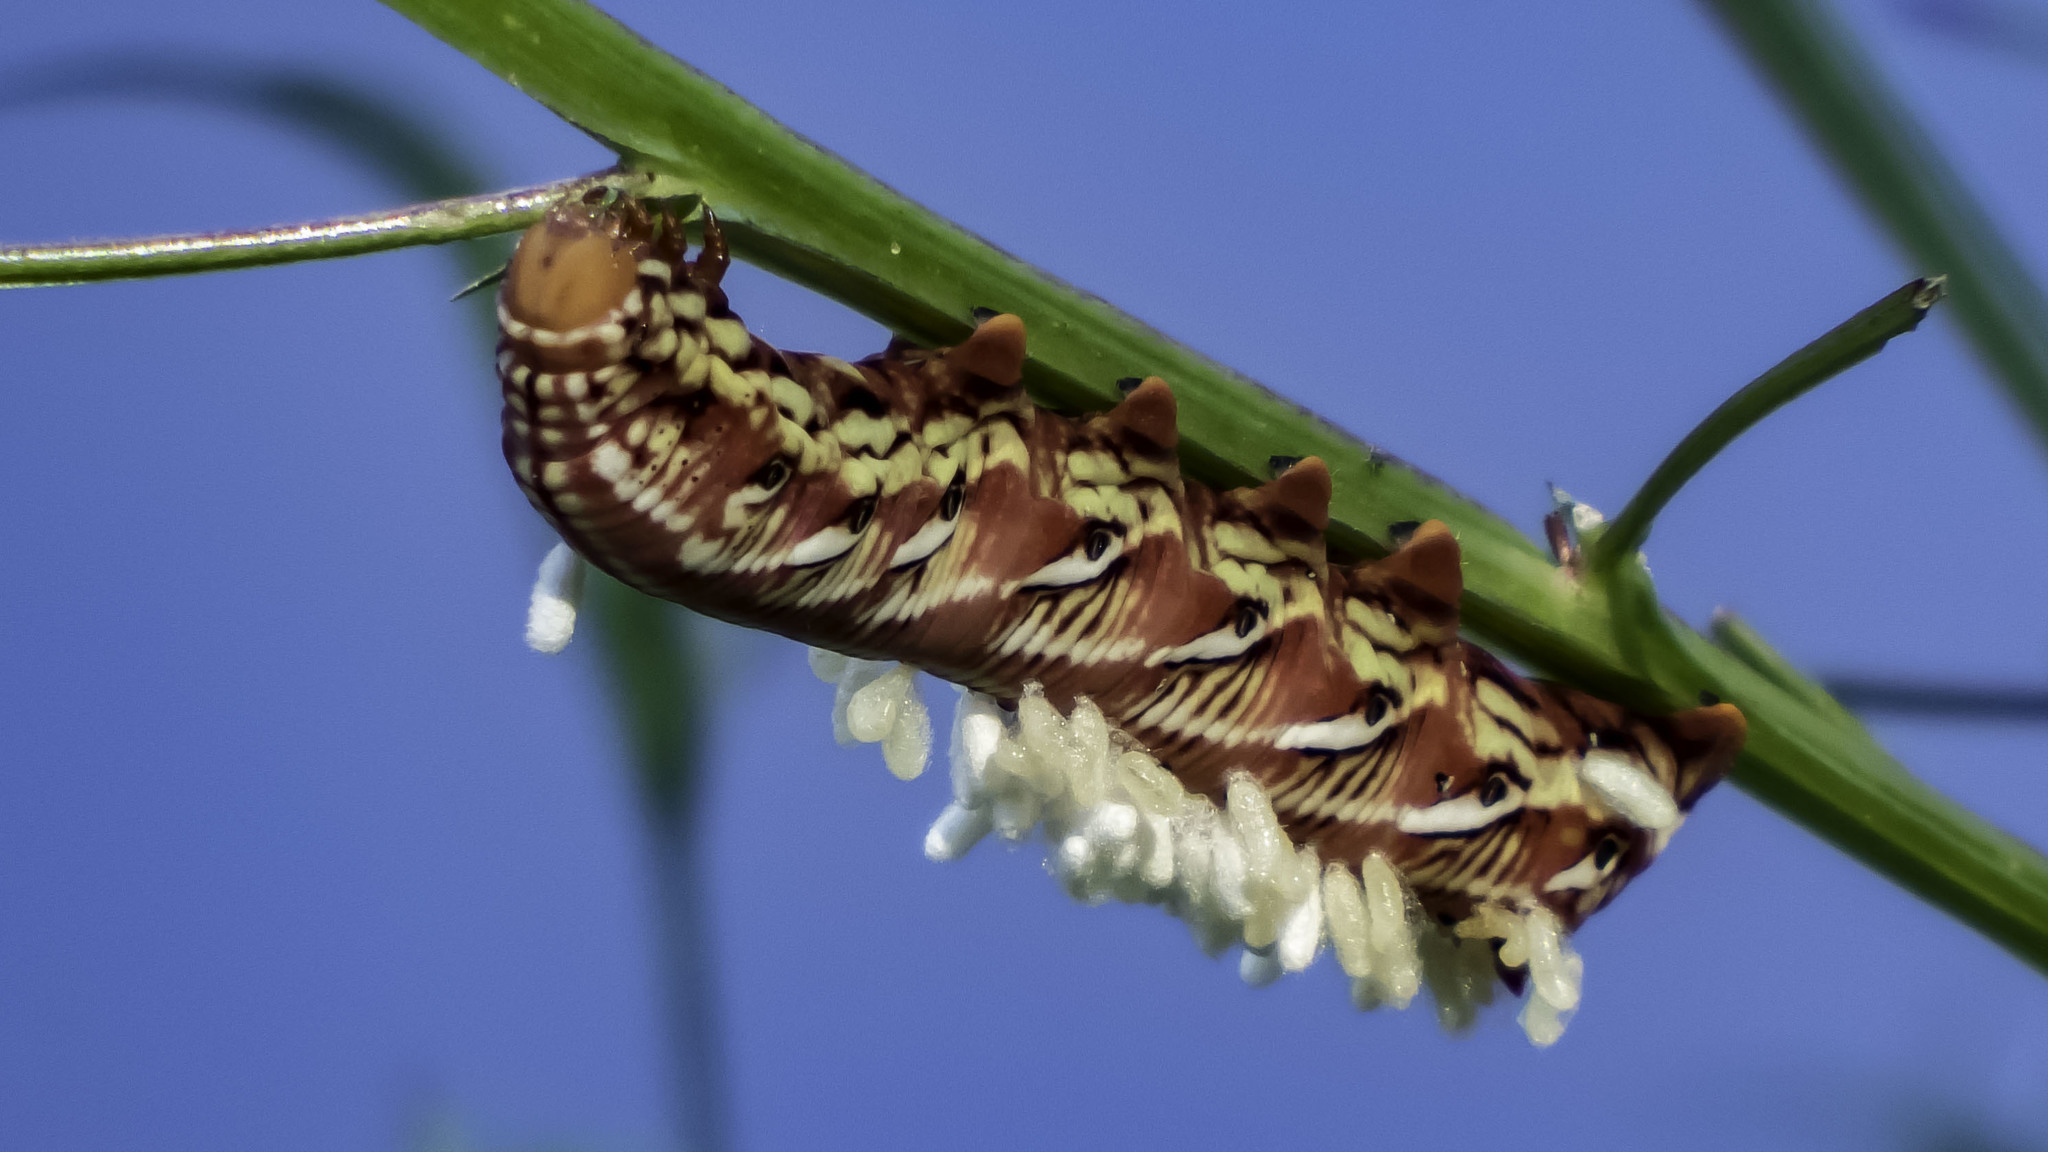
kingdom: Animalia
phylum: Arthropoda
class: Insecta
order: Lepidoptera
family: Sphingidae
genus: Eumorpha
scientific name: Eumorpha fasciatus
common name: Banded sphinx
